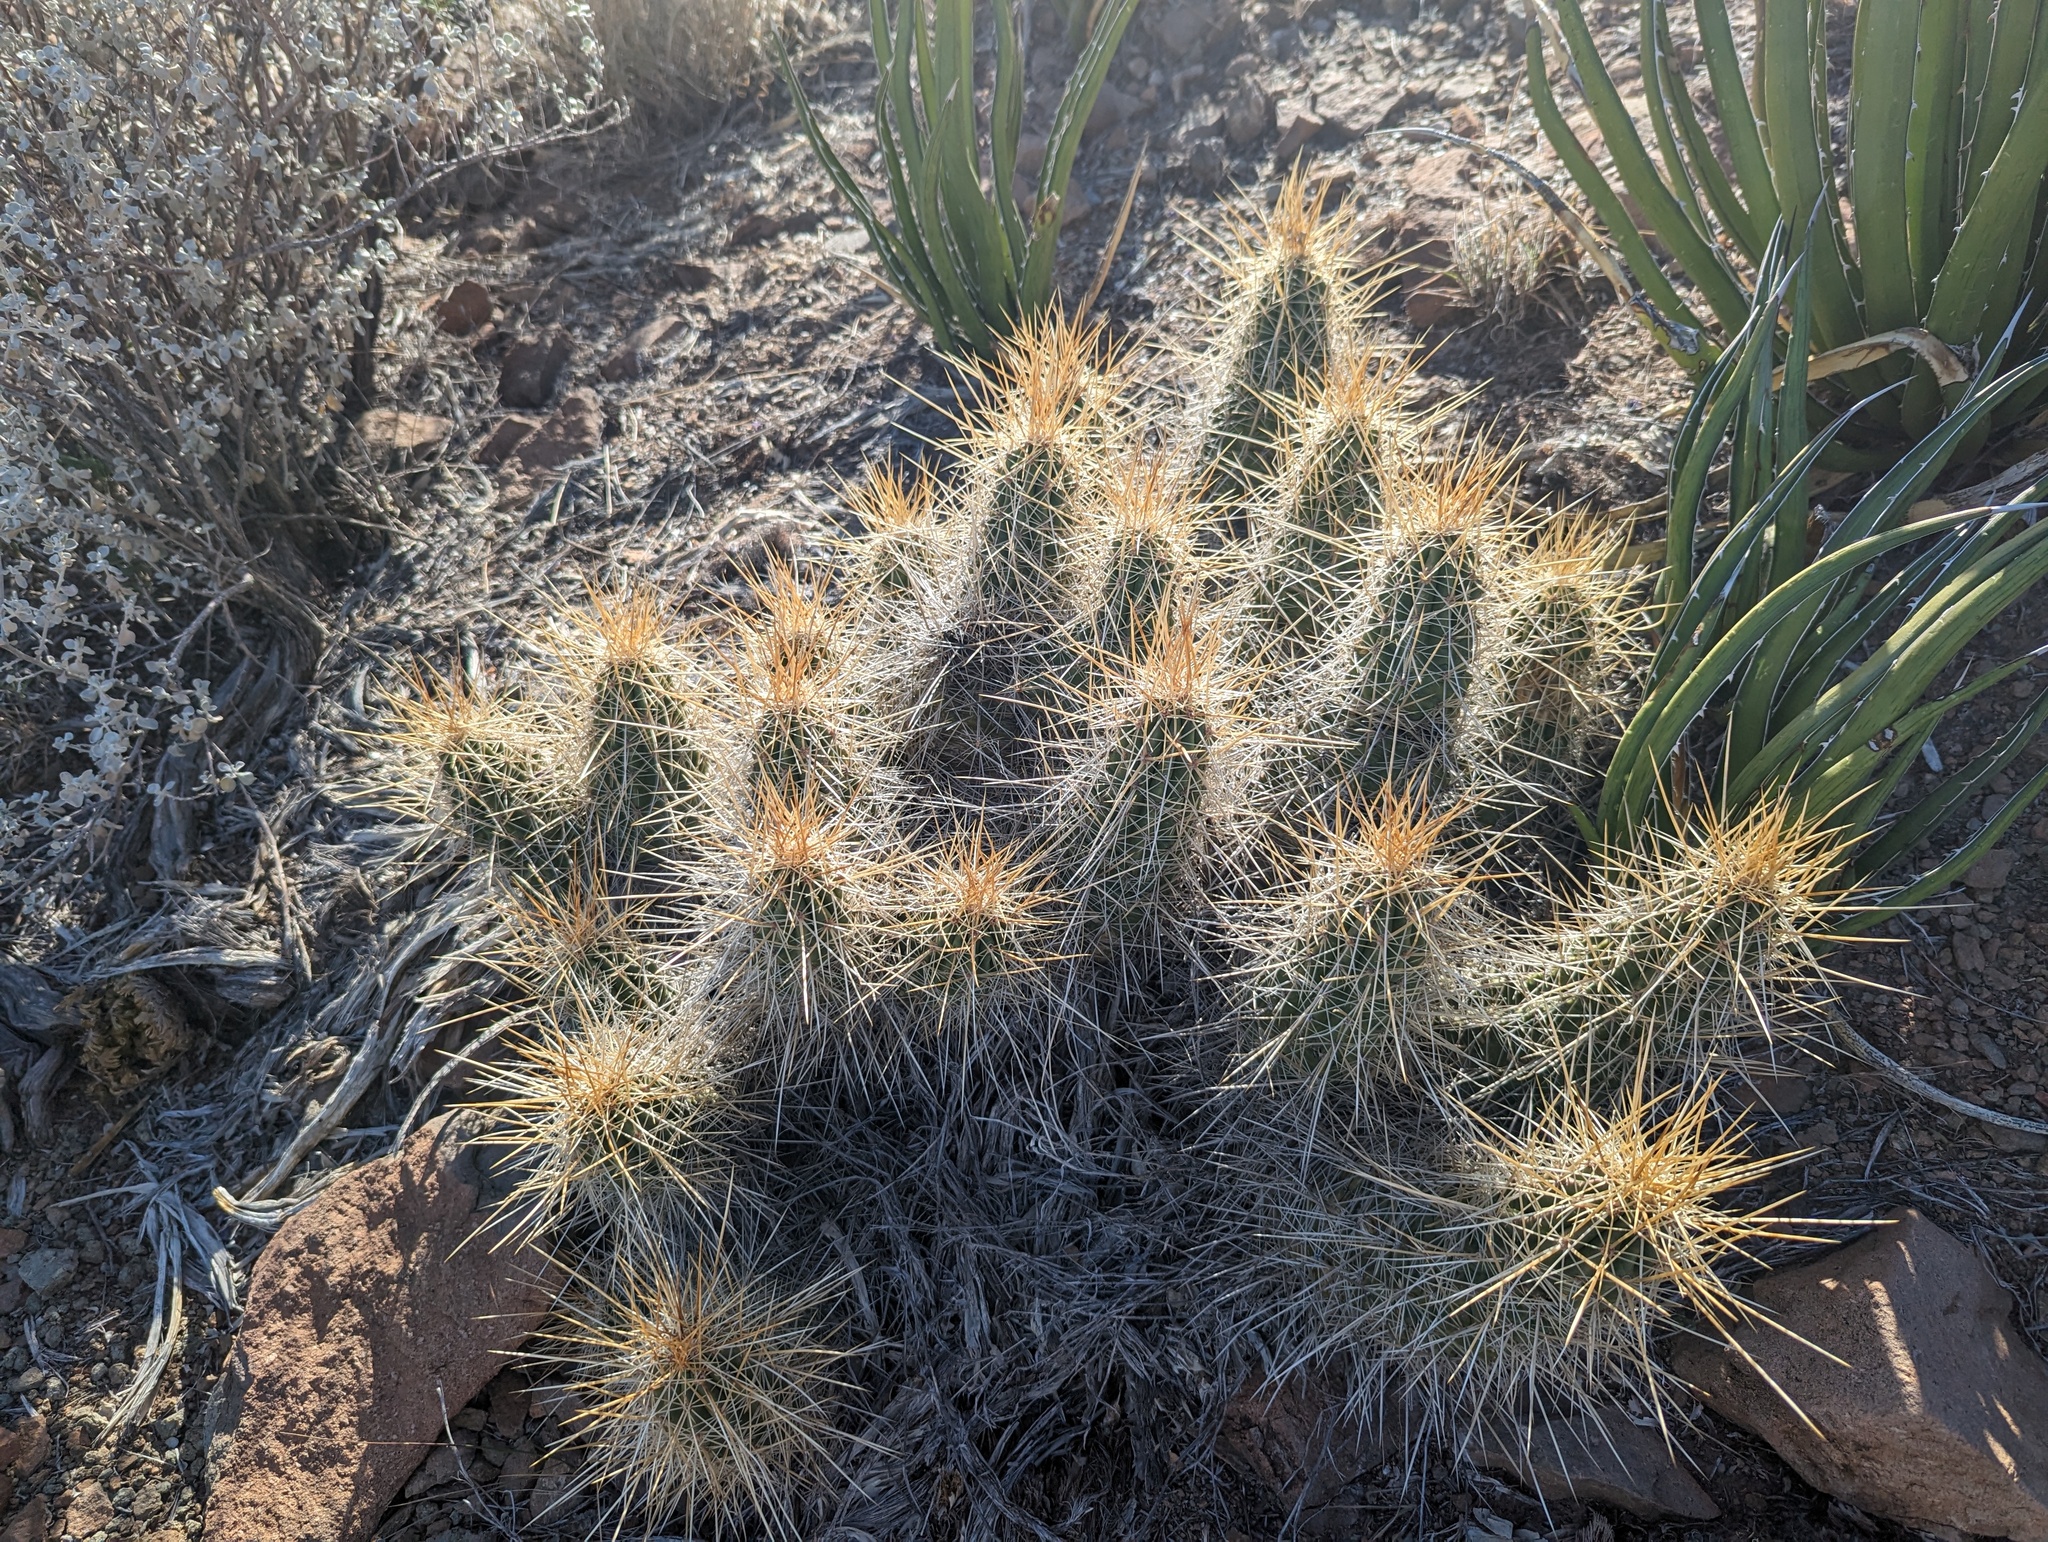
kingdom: Plantae
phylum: Tracheophyta
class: Magnoliopsida
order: Caryophyllales
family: Cactaceae
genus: Echinocereus
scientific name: Echinocereus stramineus
